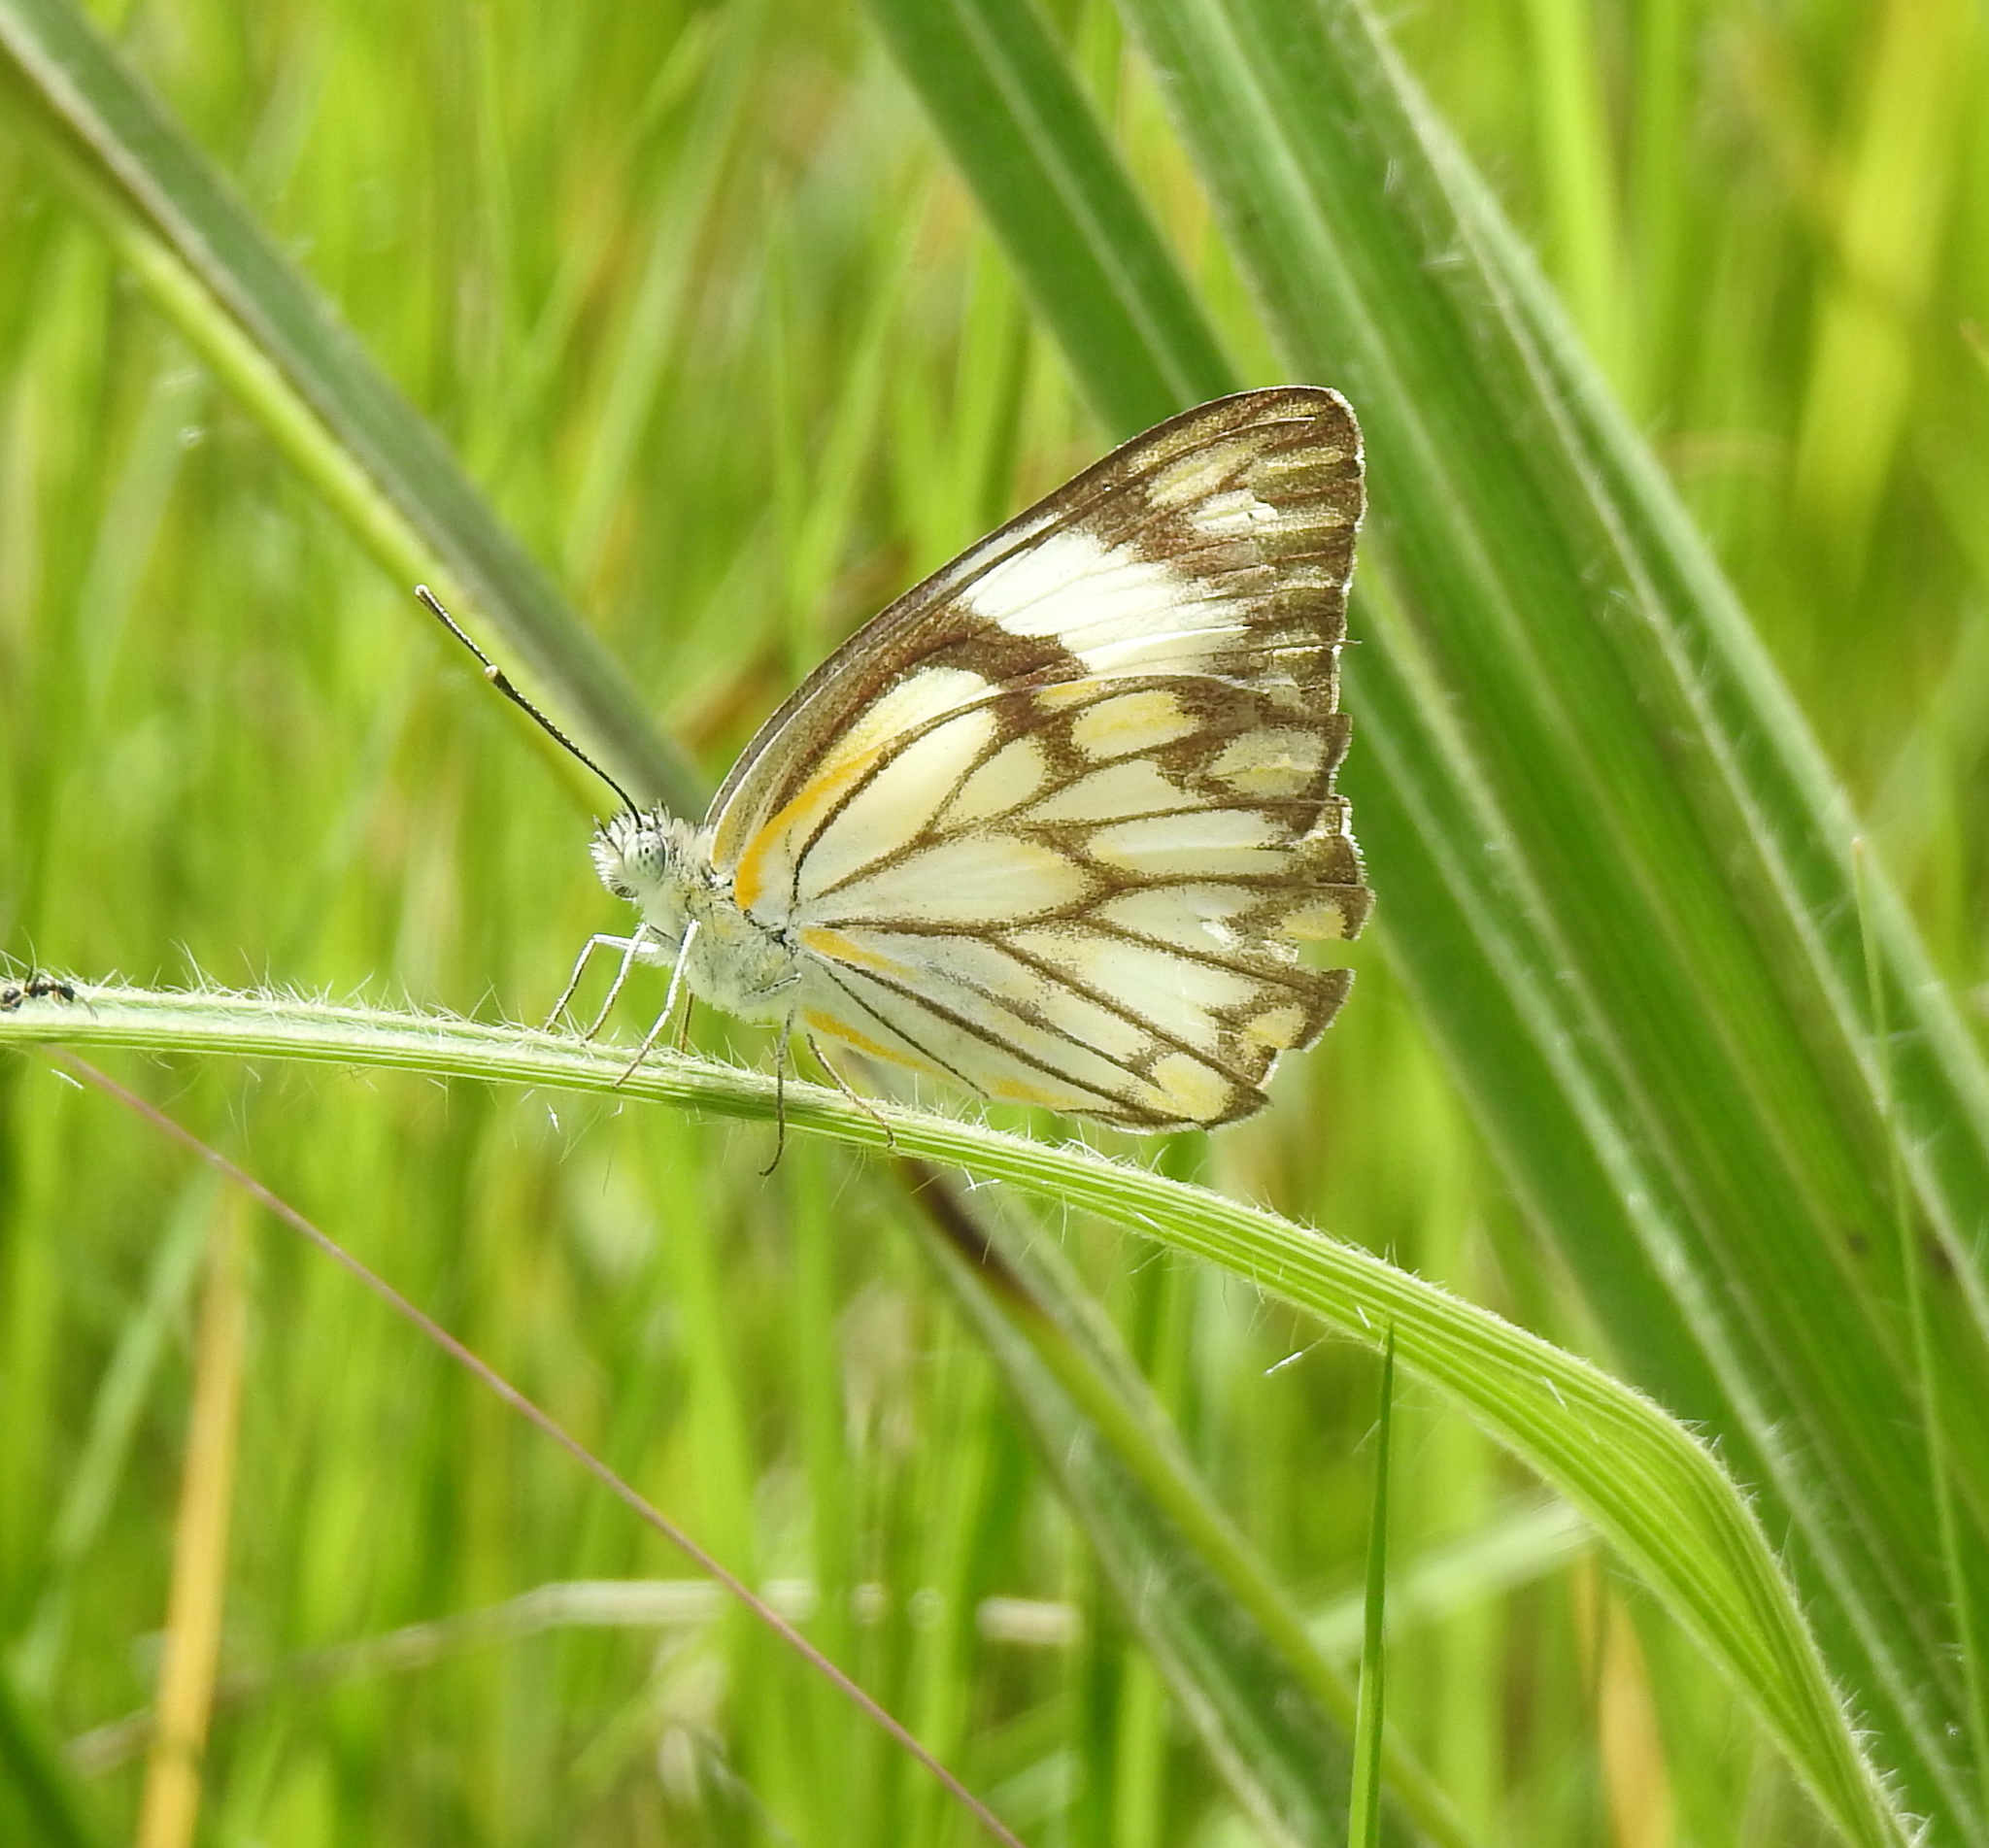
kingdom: Animalia
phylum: Arthropoda
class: Insecta
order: Lepidoptera
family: Pieridae
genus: Belenois
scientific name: Belenois aurota
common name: Brown-veined white
